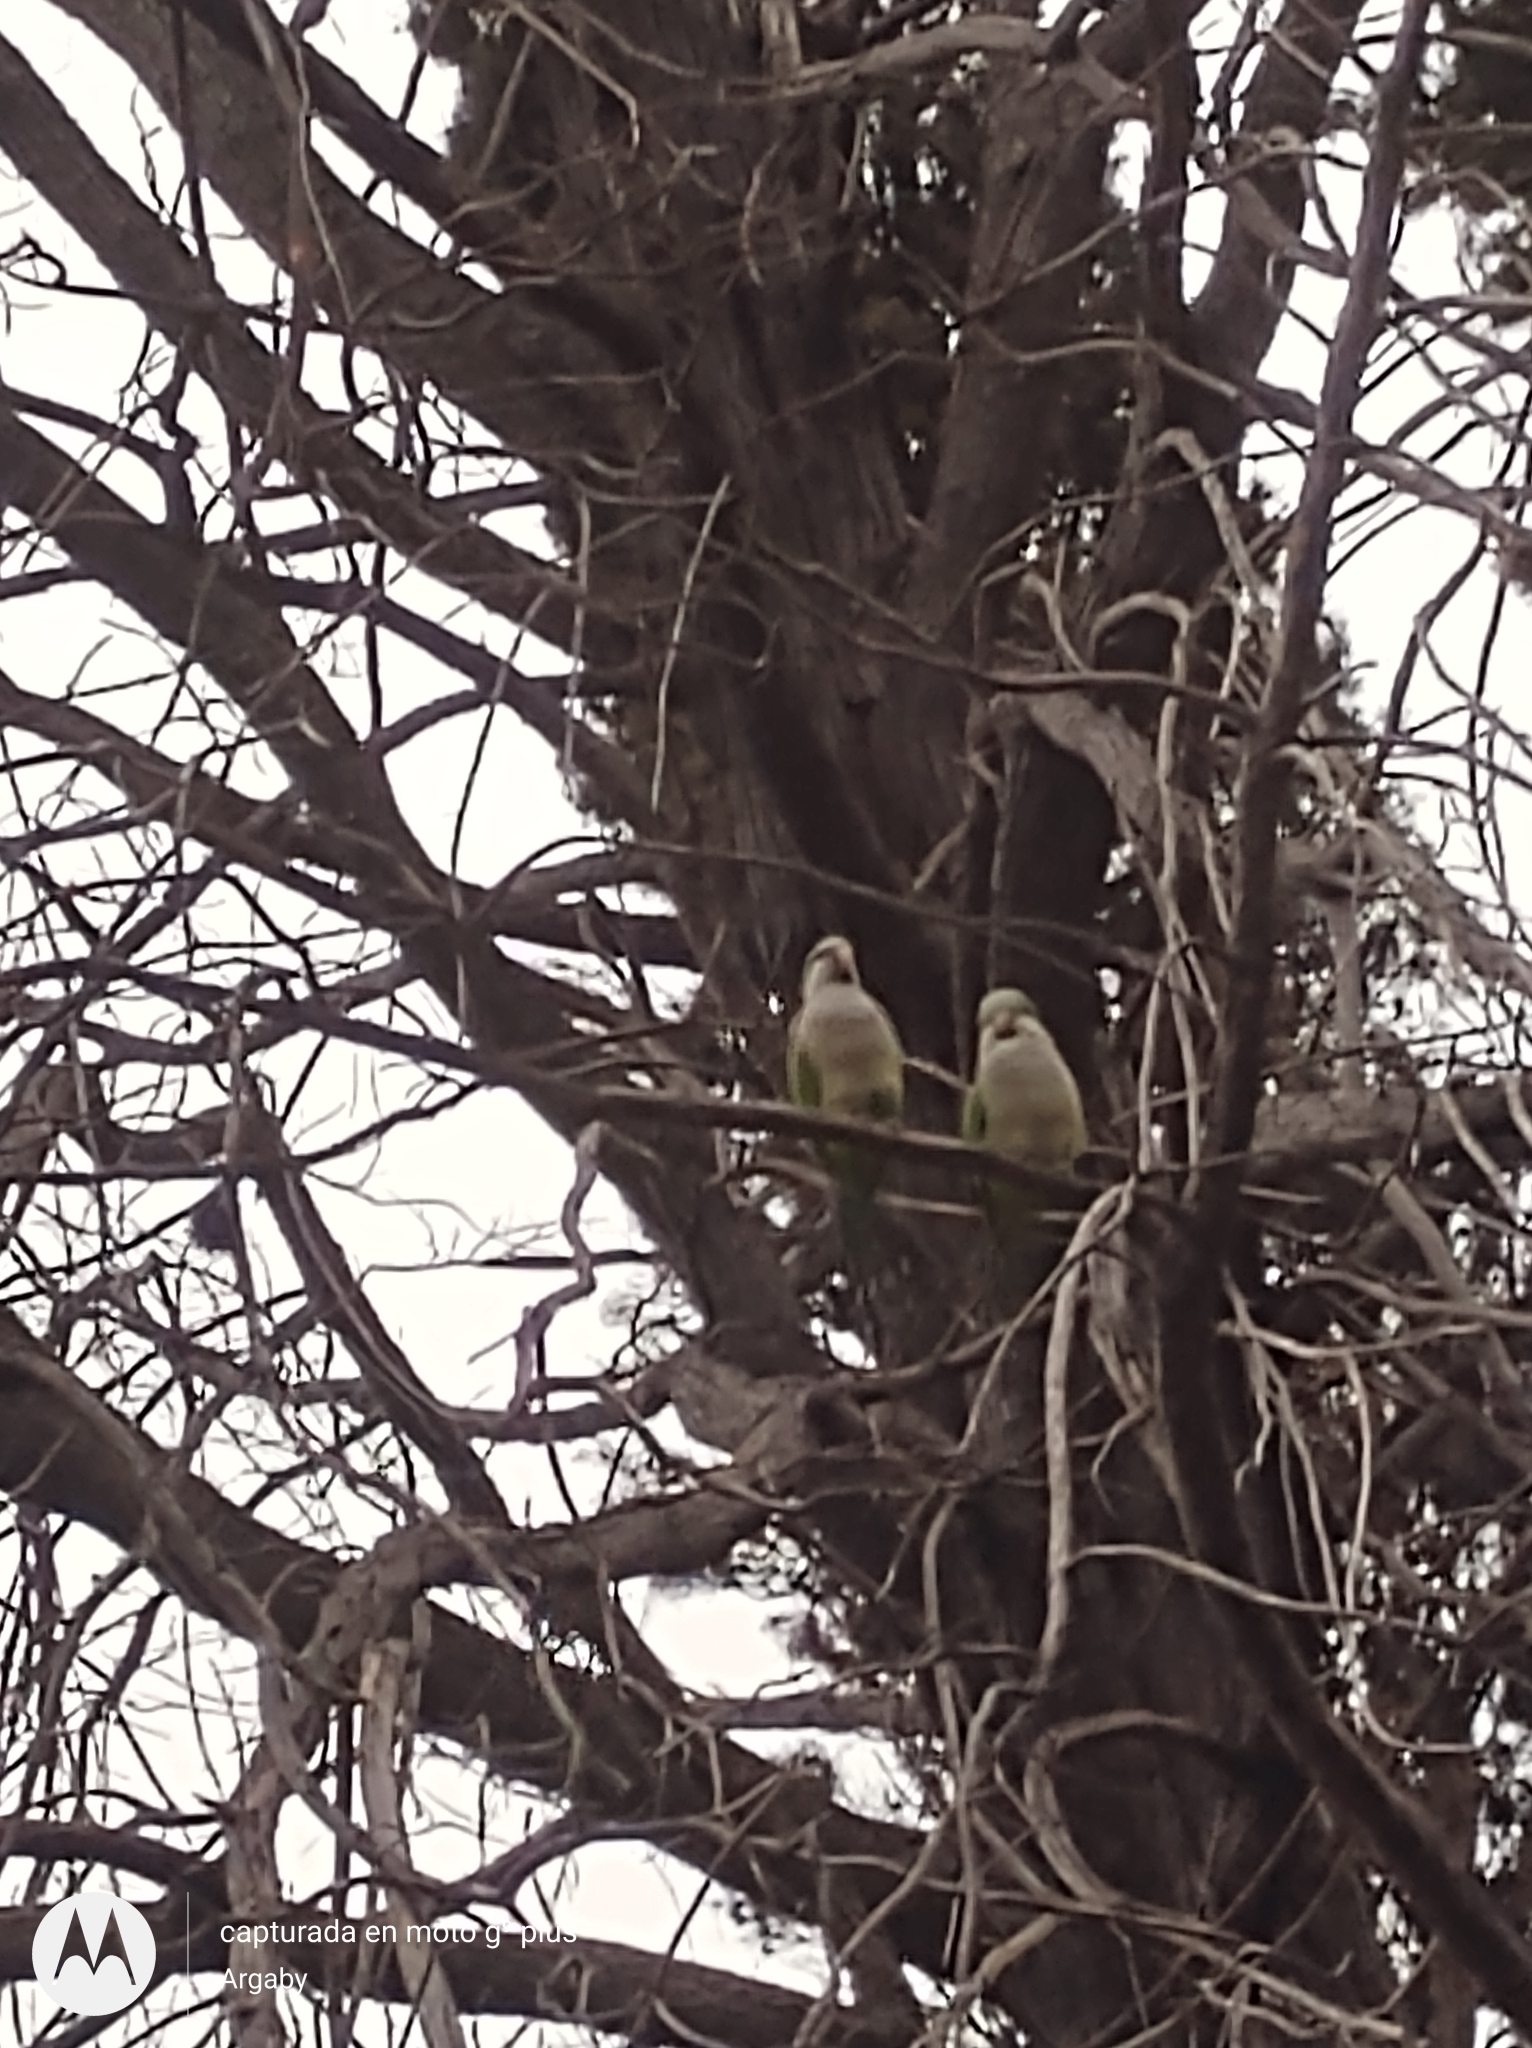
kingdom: Animalia
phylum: Chordata
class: Aves
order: Psittaciformes
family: Psittacidae
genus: Myiopsitta
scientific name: Myiopsitta monachus
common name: Monk parakeet
